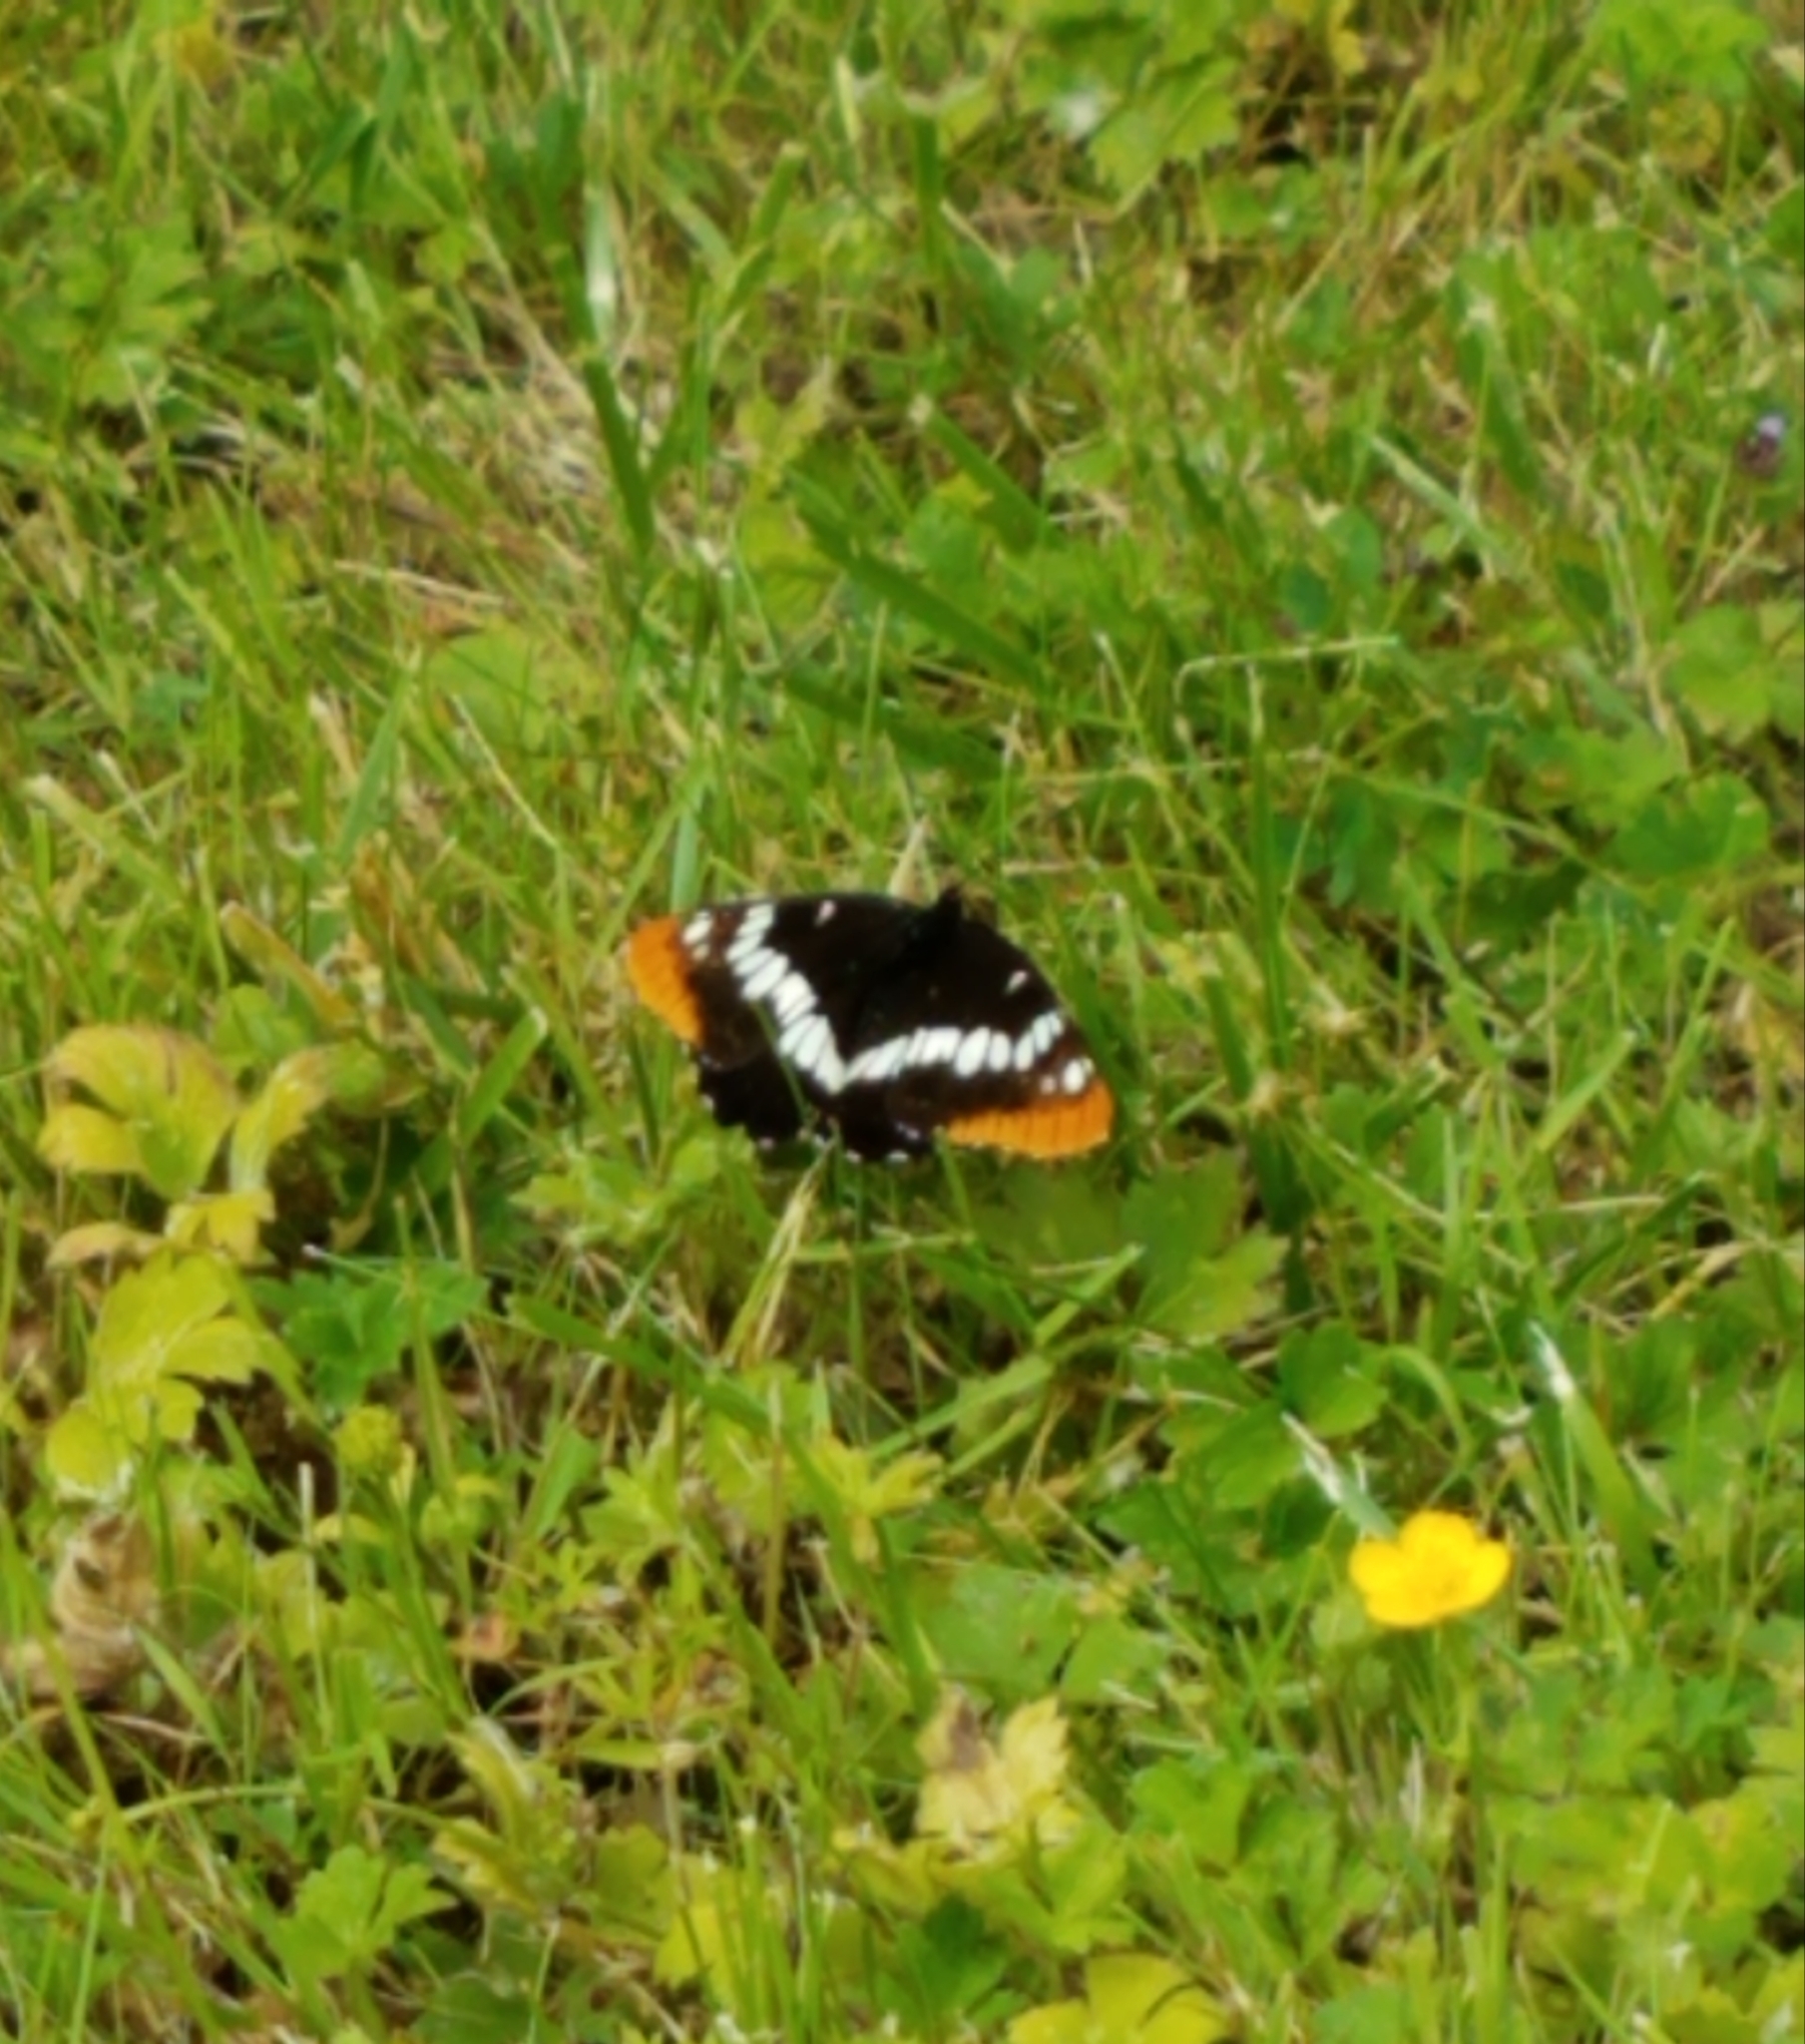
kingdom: Animalia
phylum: Arthropoda
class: Insecta
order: Lepidoptera
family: Nymphalidae
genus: Limenitis
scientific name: Limenitis lorquini
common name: Lorquin's admiral
